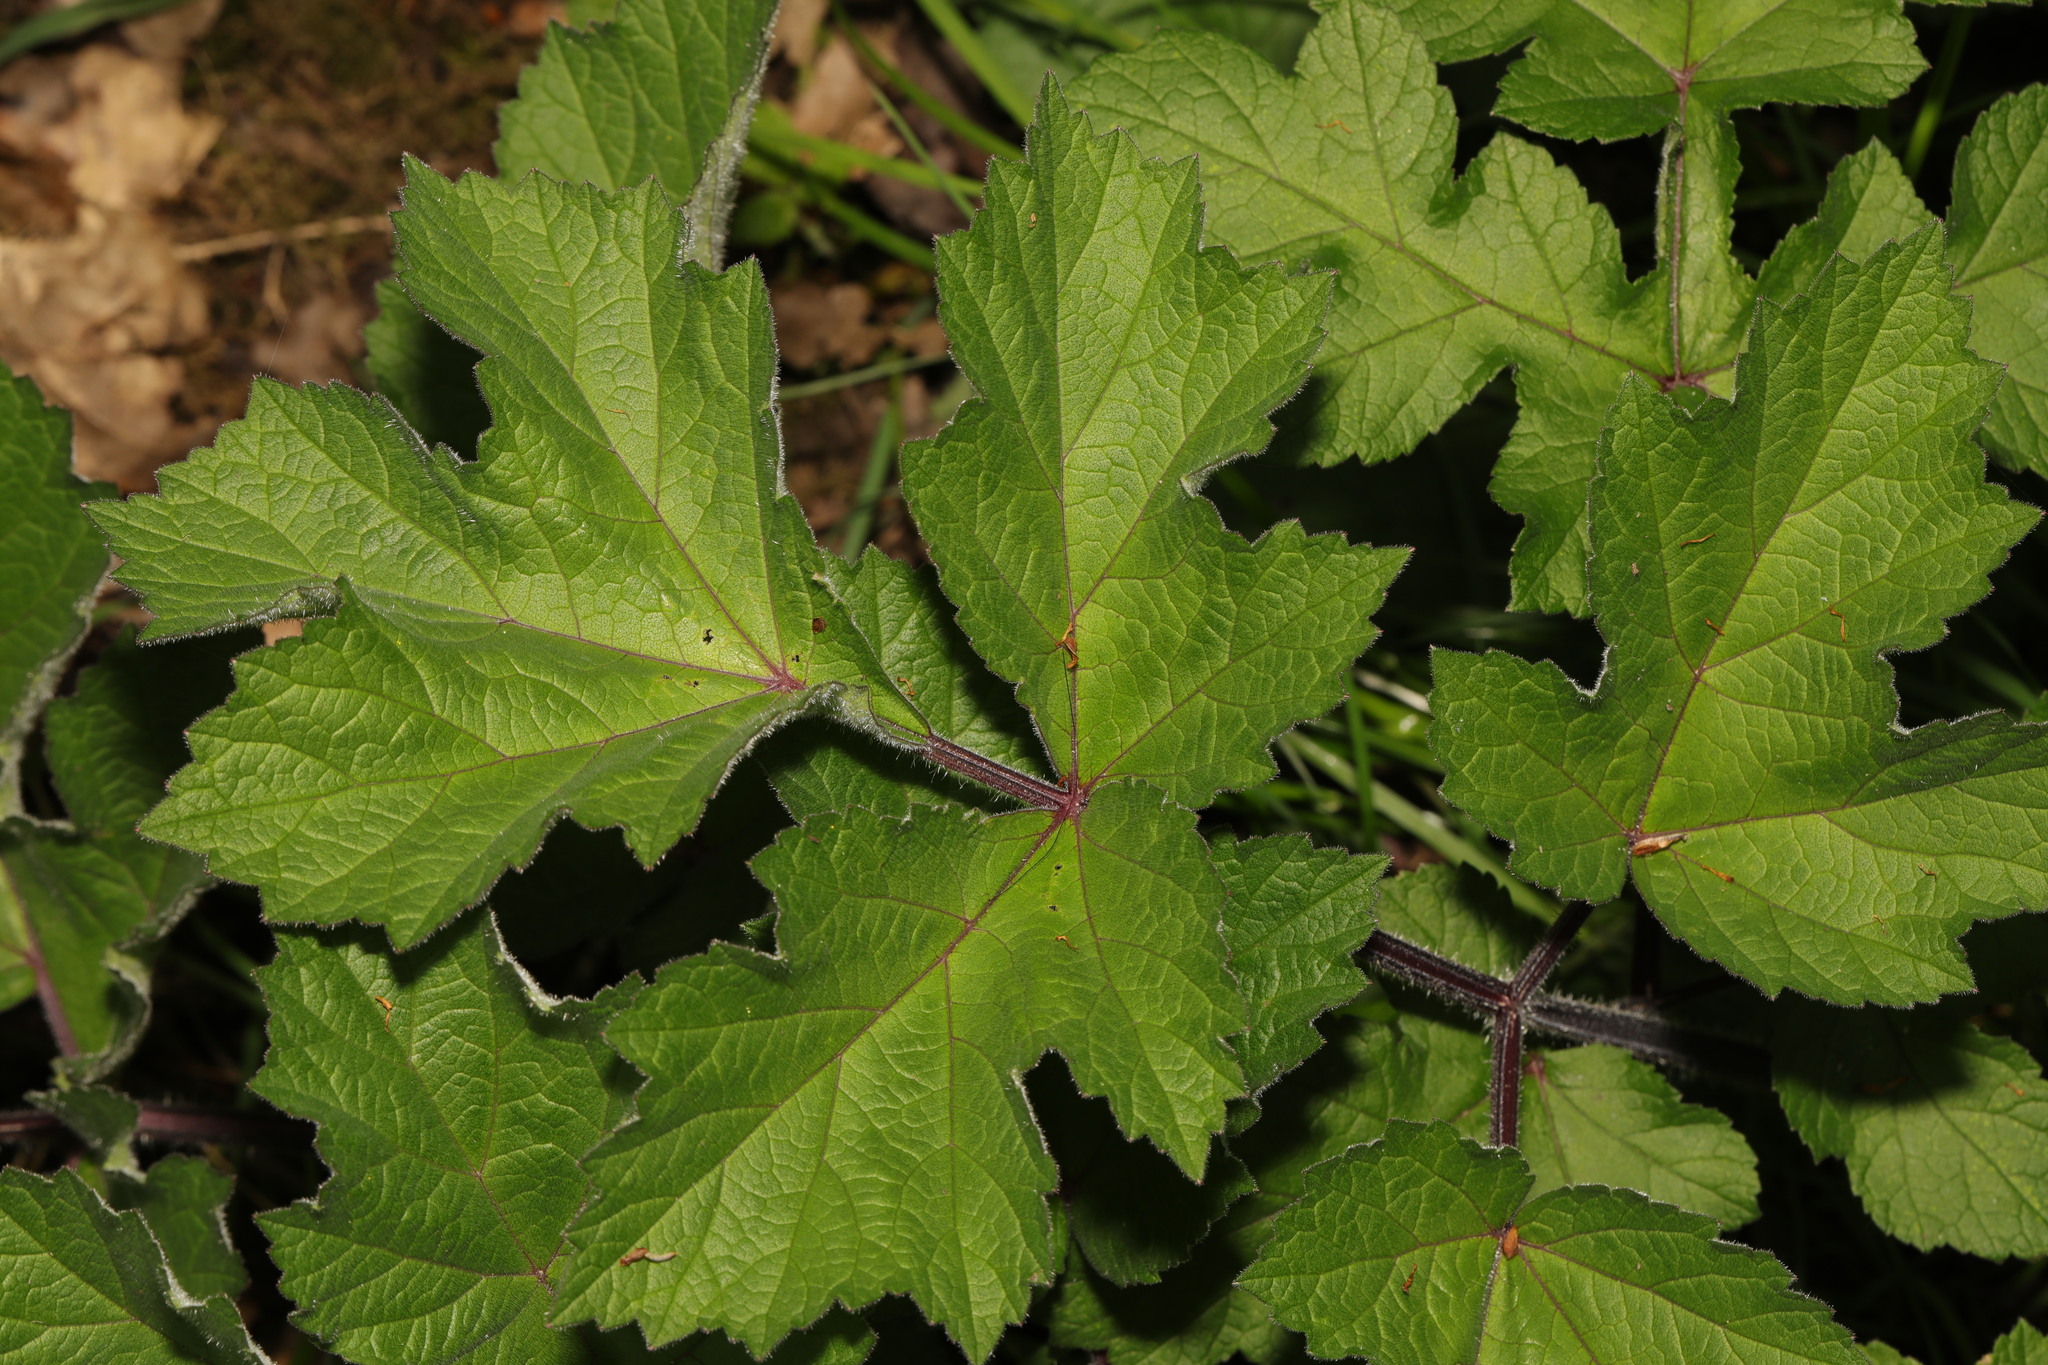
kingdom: Plantae
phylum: Tracheophyta
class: Magnoliopsida
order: Apiales
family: Apiaceae
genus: Heracleum
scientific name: Heracleum sphondylium
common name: Hogweed
